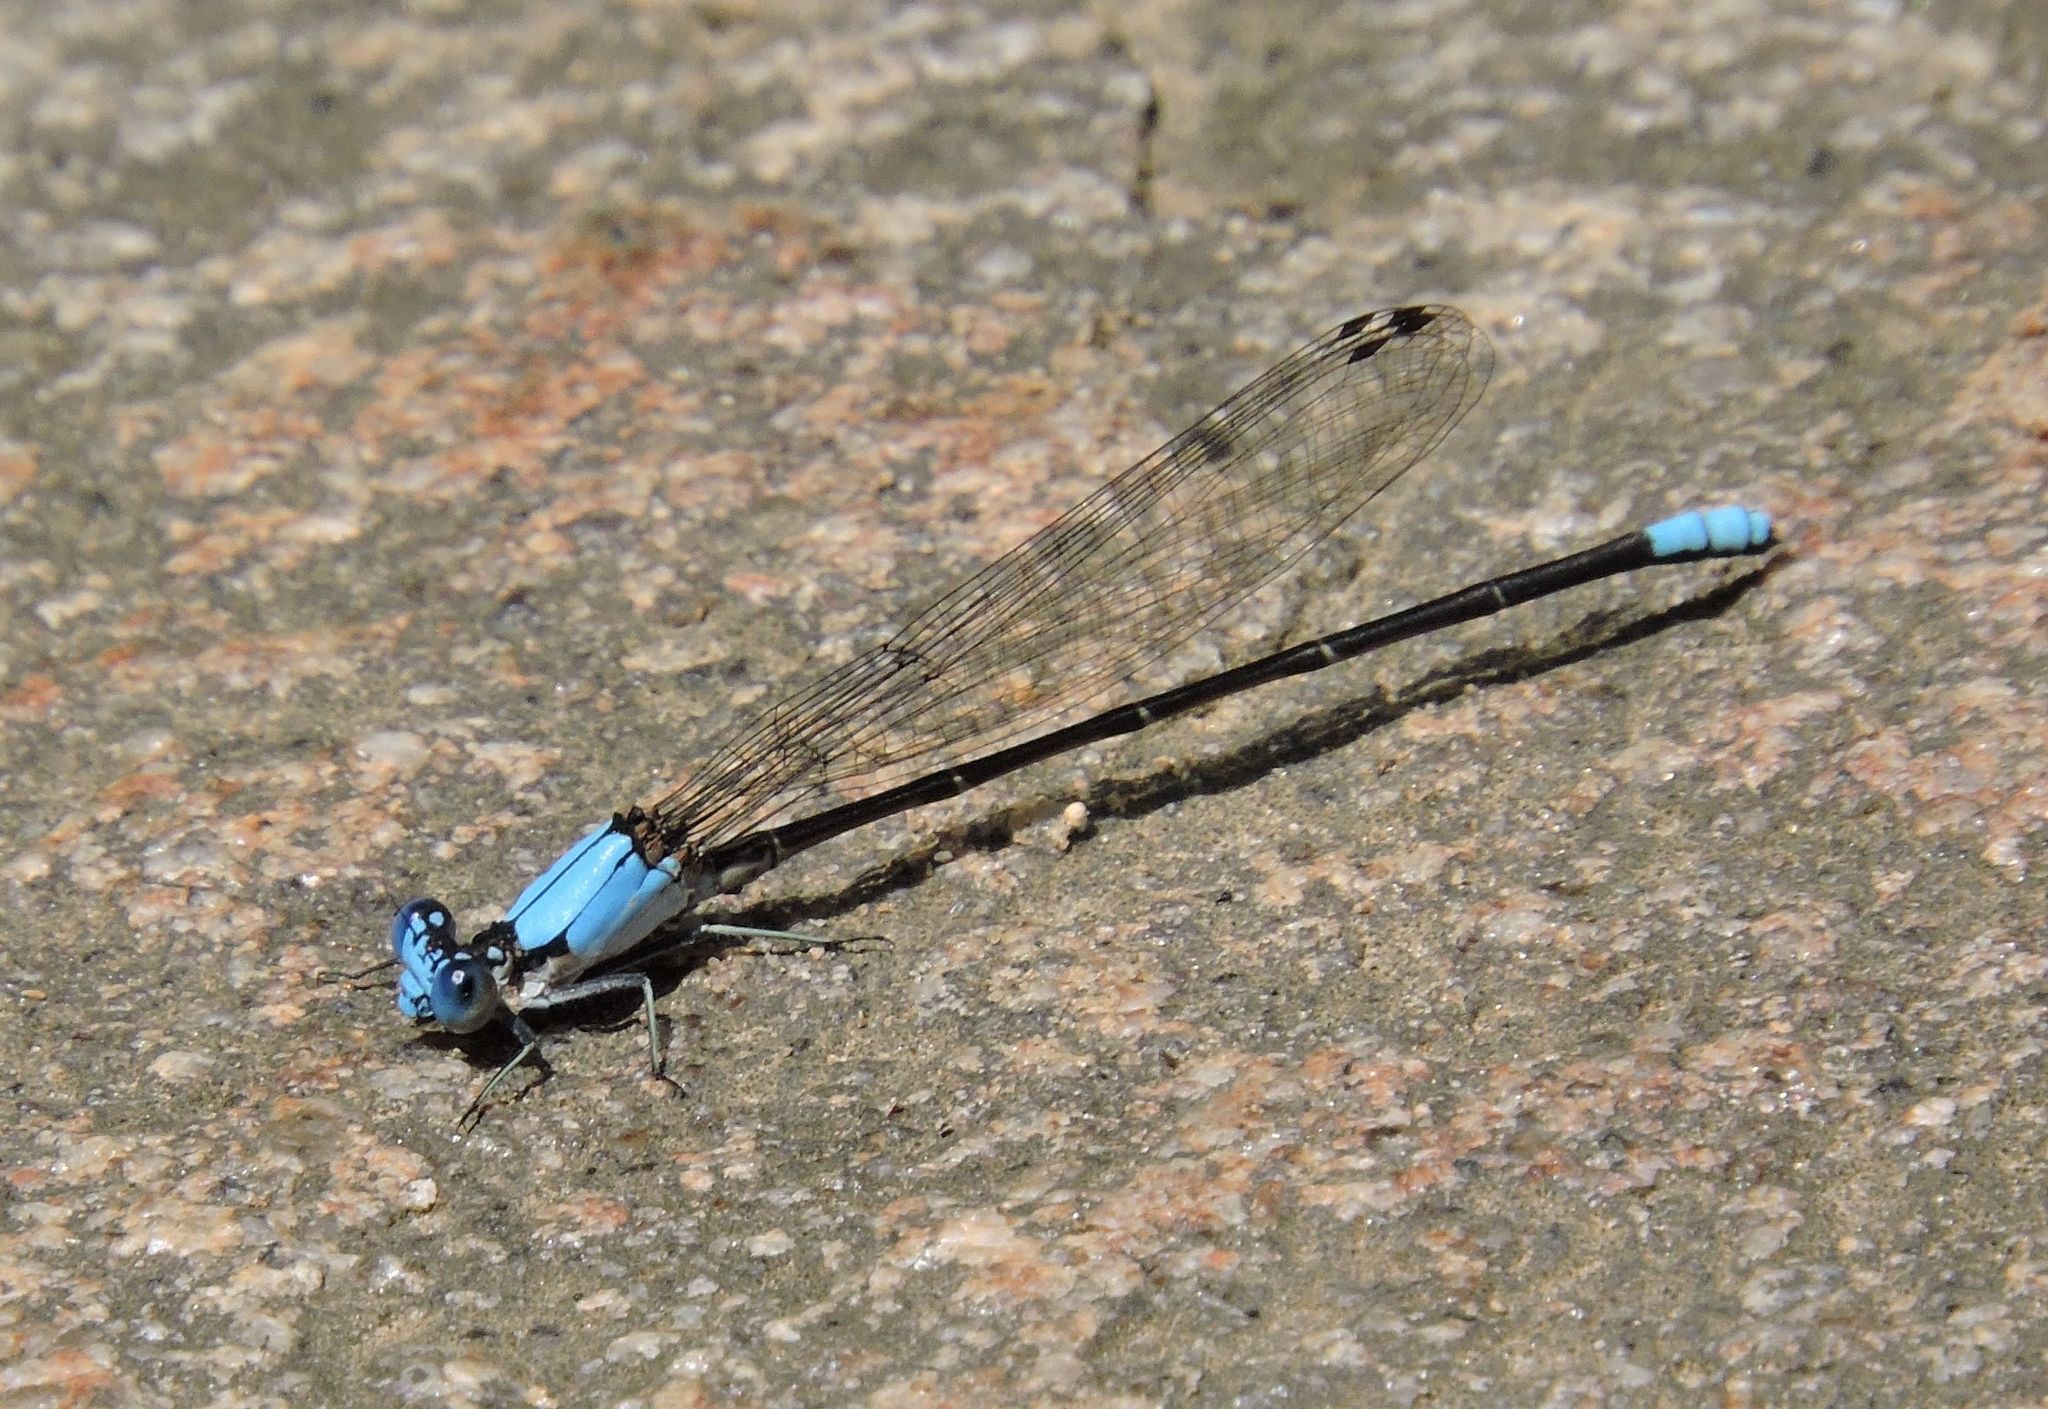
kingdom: Animalia
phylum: Arthropoda
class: Insecta
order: Odonata
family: Coenagrionidae
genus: Argia
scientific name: Argia apicalis
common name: Blue-fronted dancer
